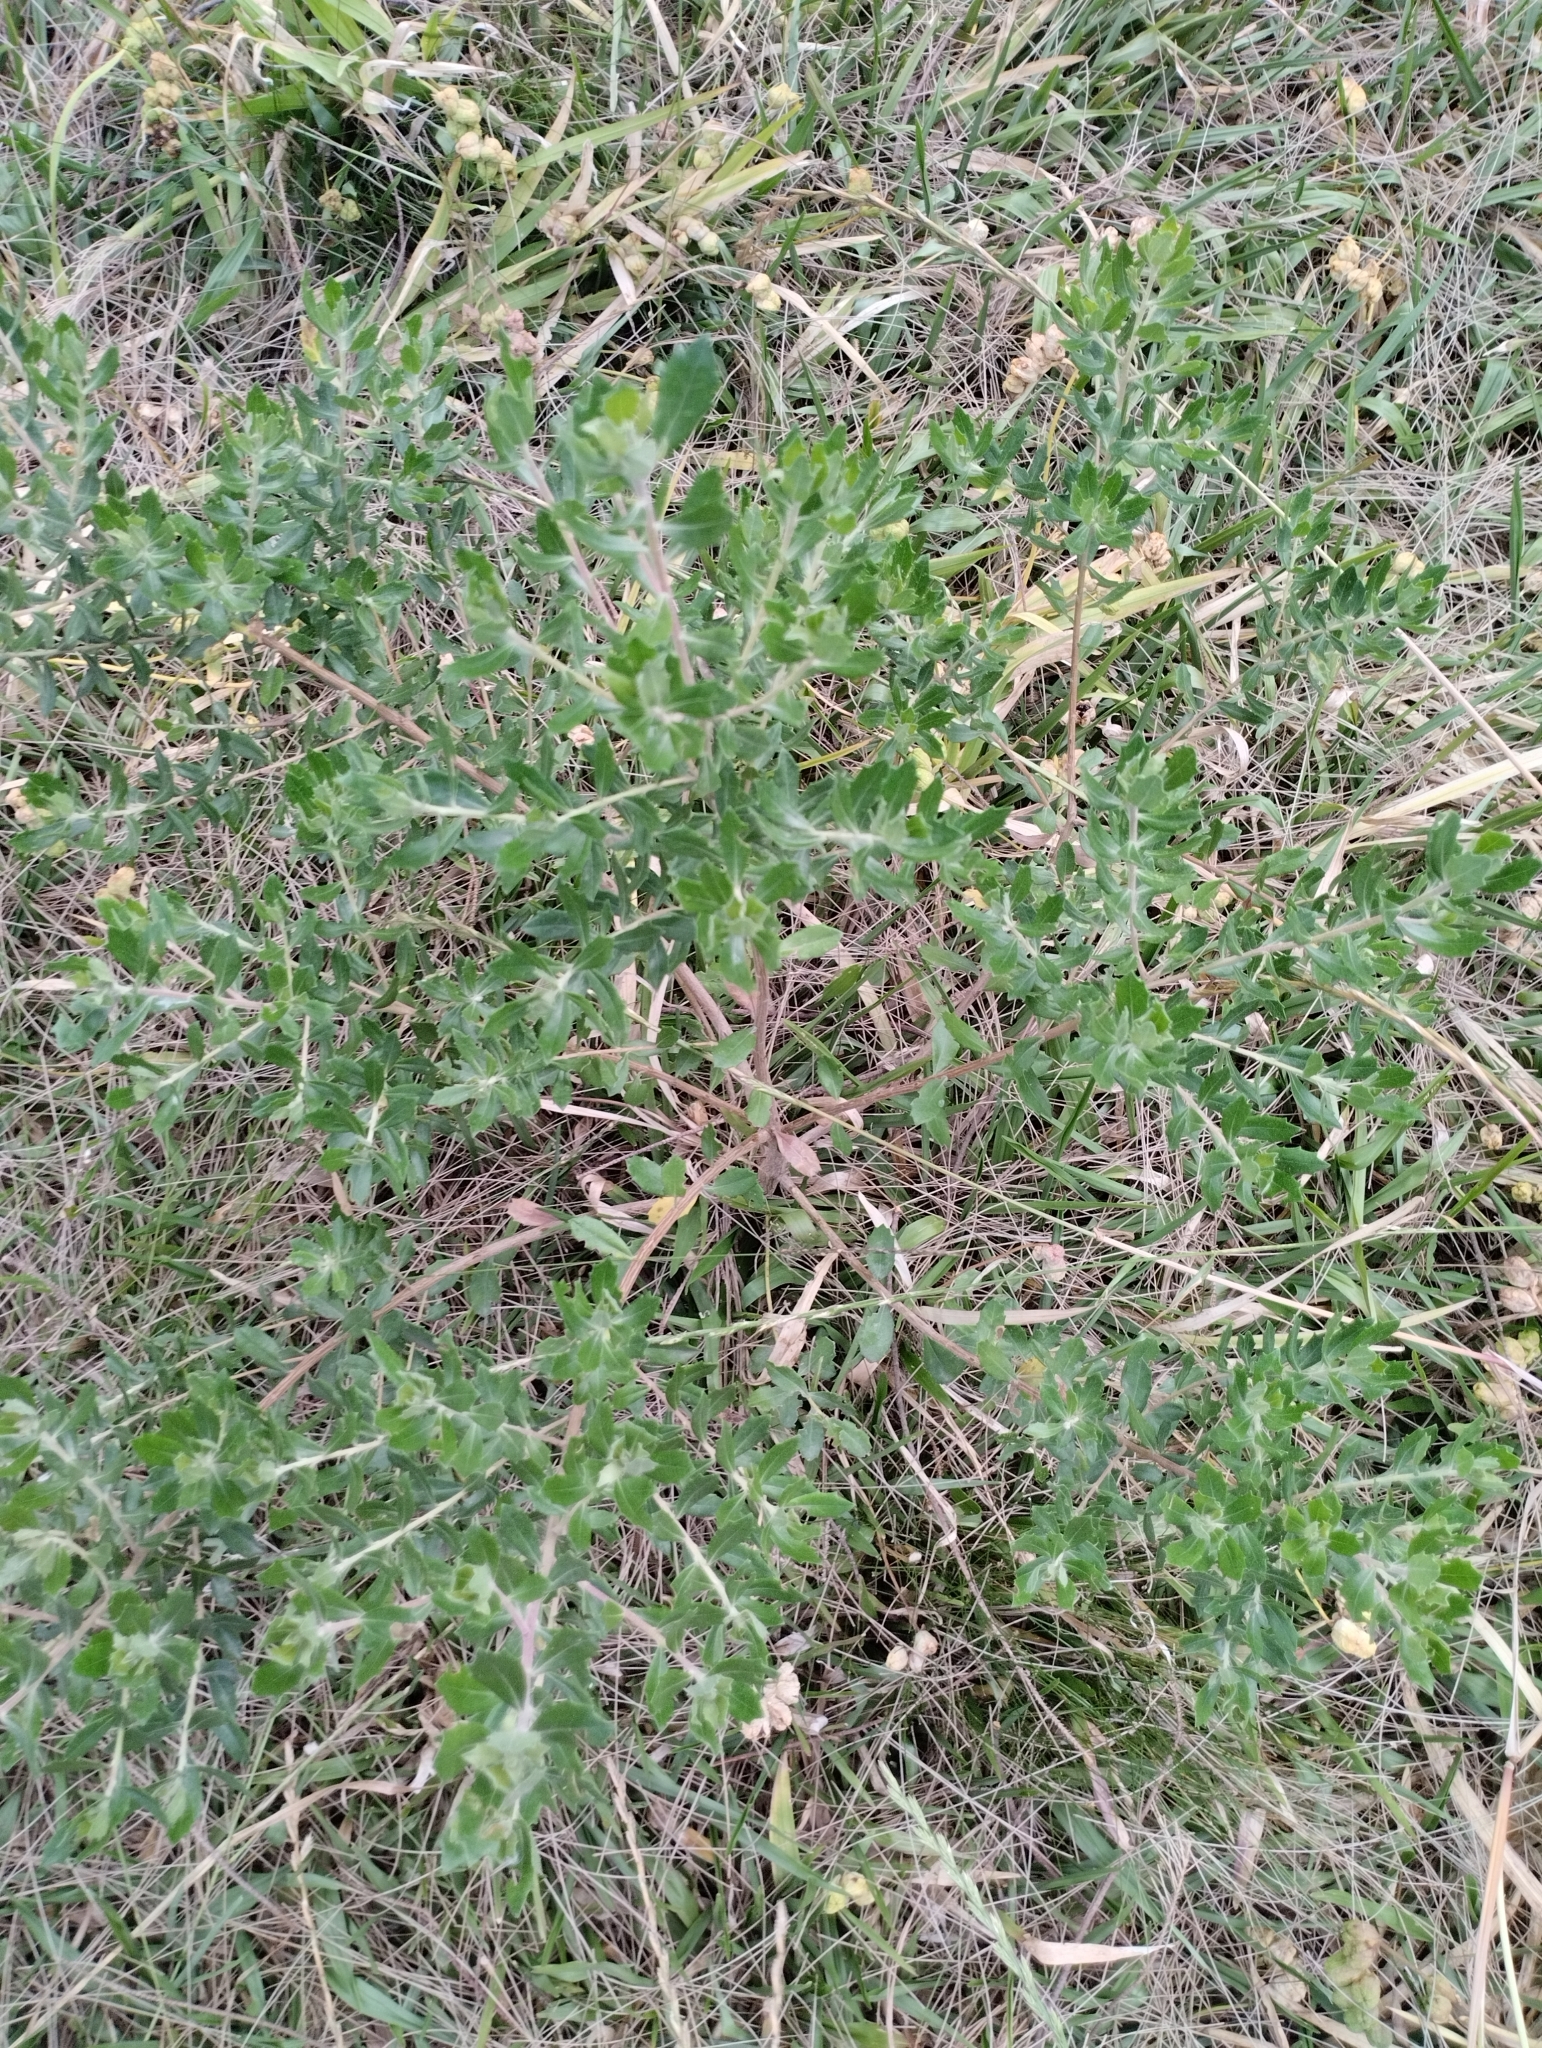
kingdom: Plantae
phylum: Tracheophyta
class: Magnoliopsida
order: Asterales
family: Asteraceae
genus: Baccharis
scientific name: Baccharis dracunculifolia
